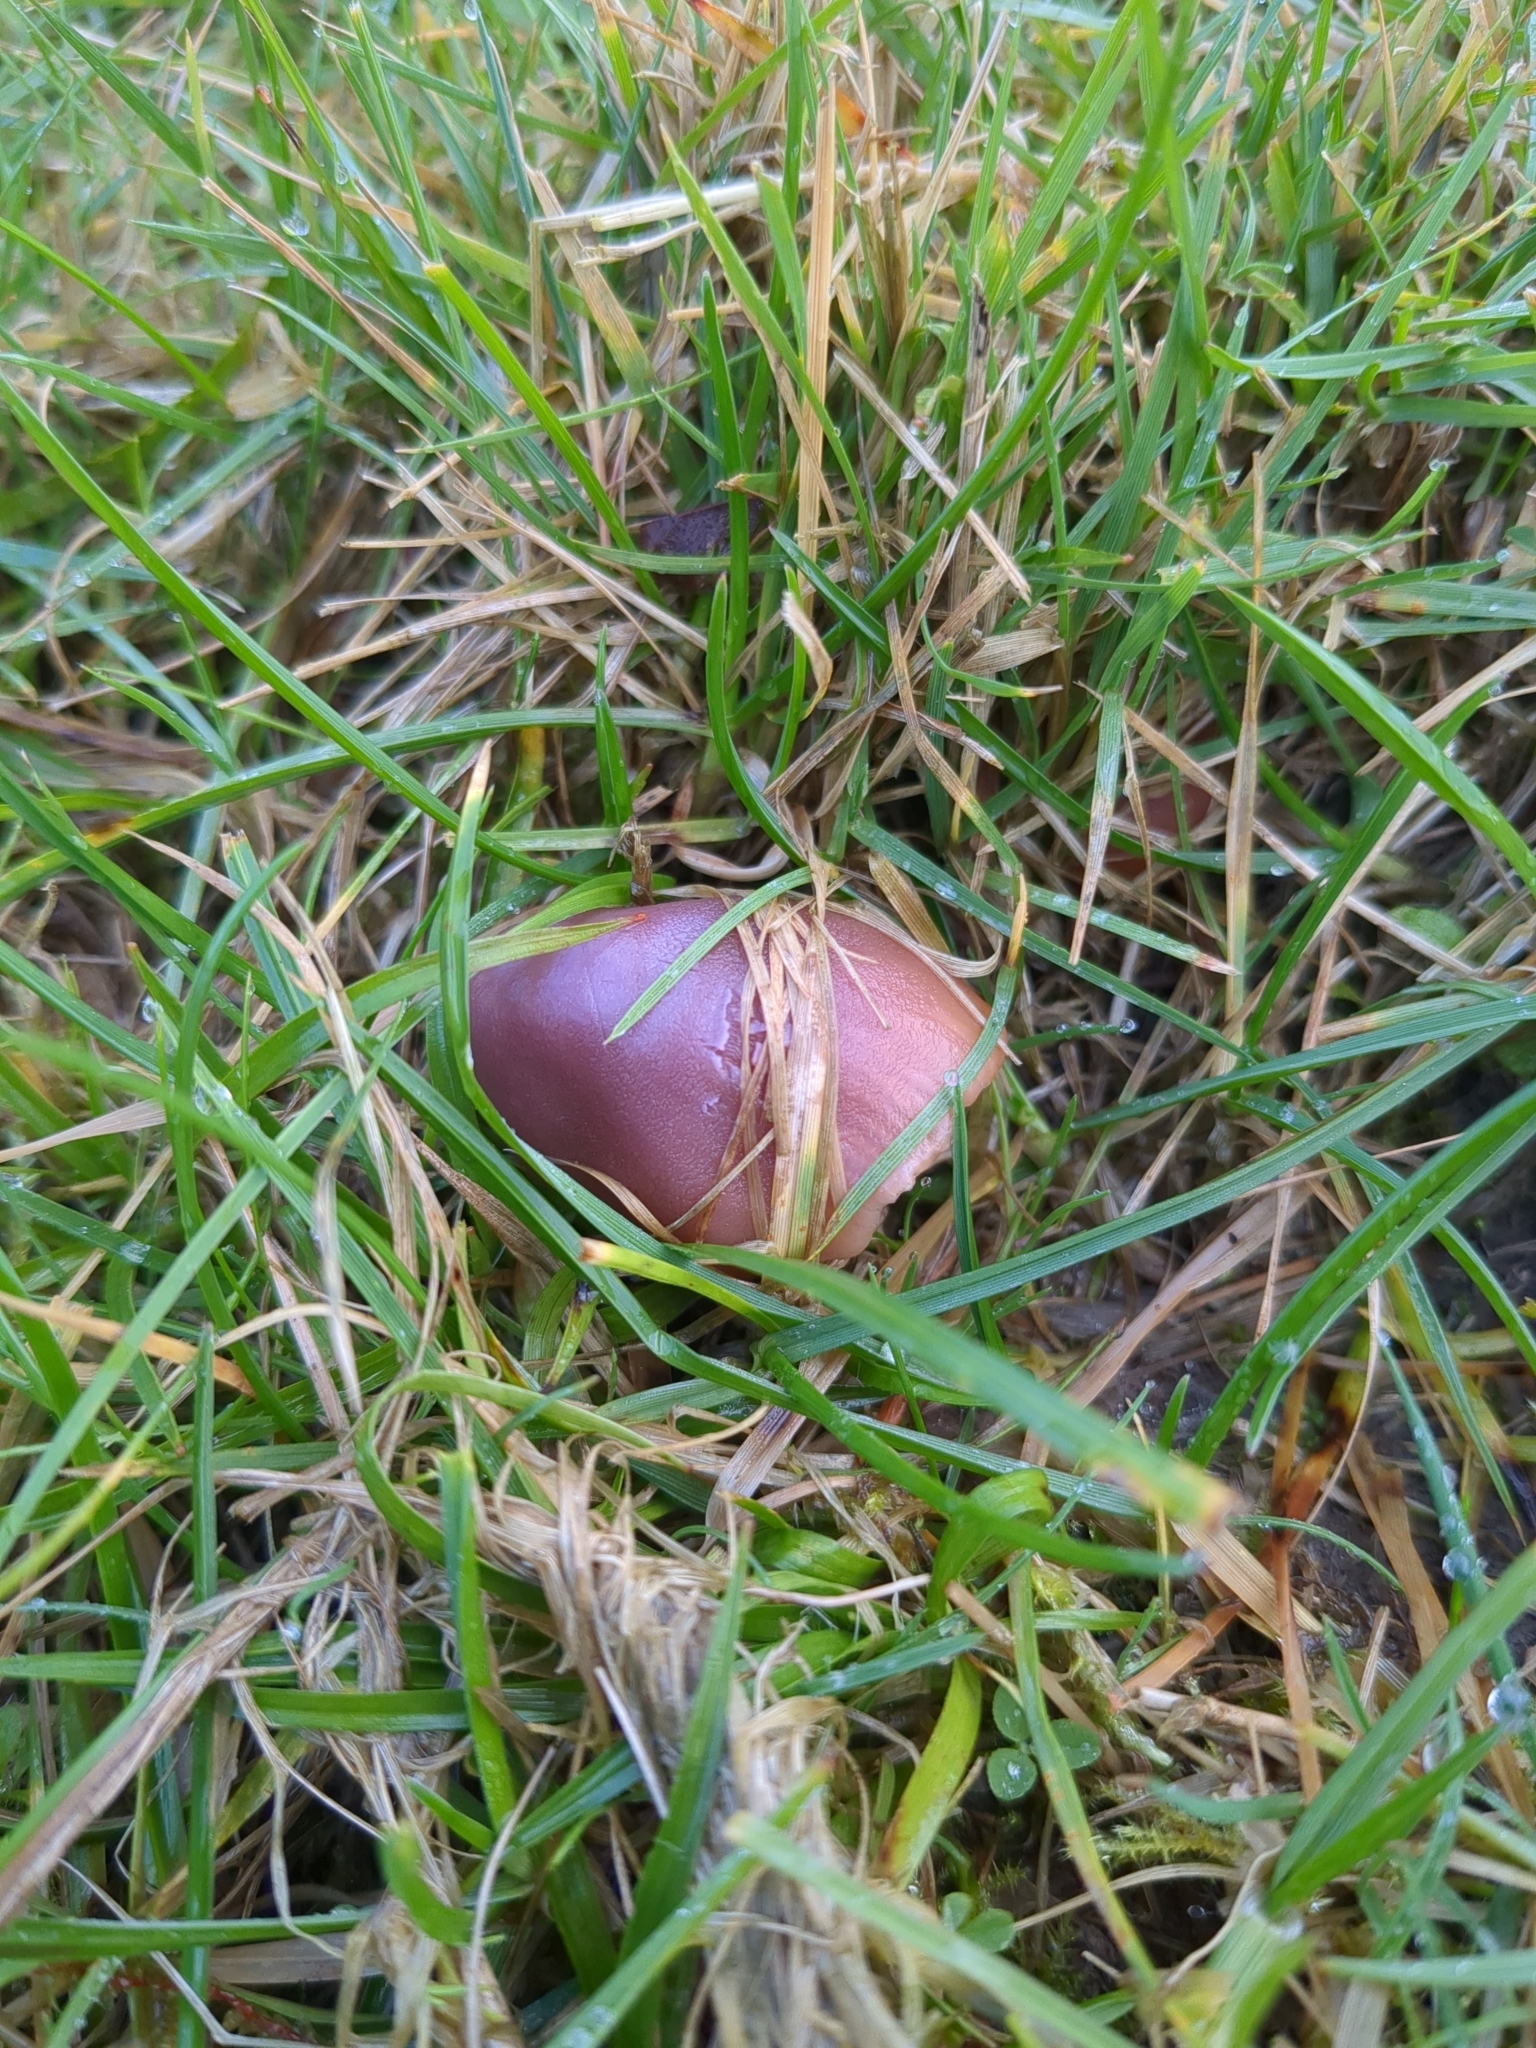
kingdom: Fungi
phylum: Basidiomycota
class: Agaricomycetes
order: Agaricales
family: Hygrophoraceae
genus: Gliophorus
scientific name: Gliophorus reginae
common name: Jubilee waxcap
